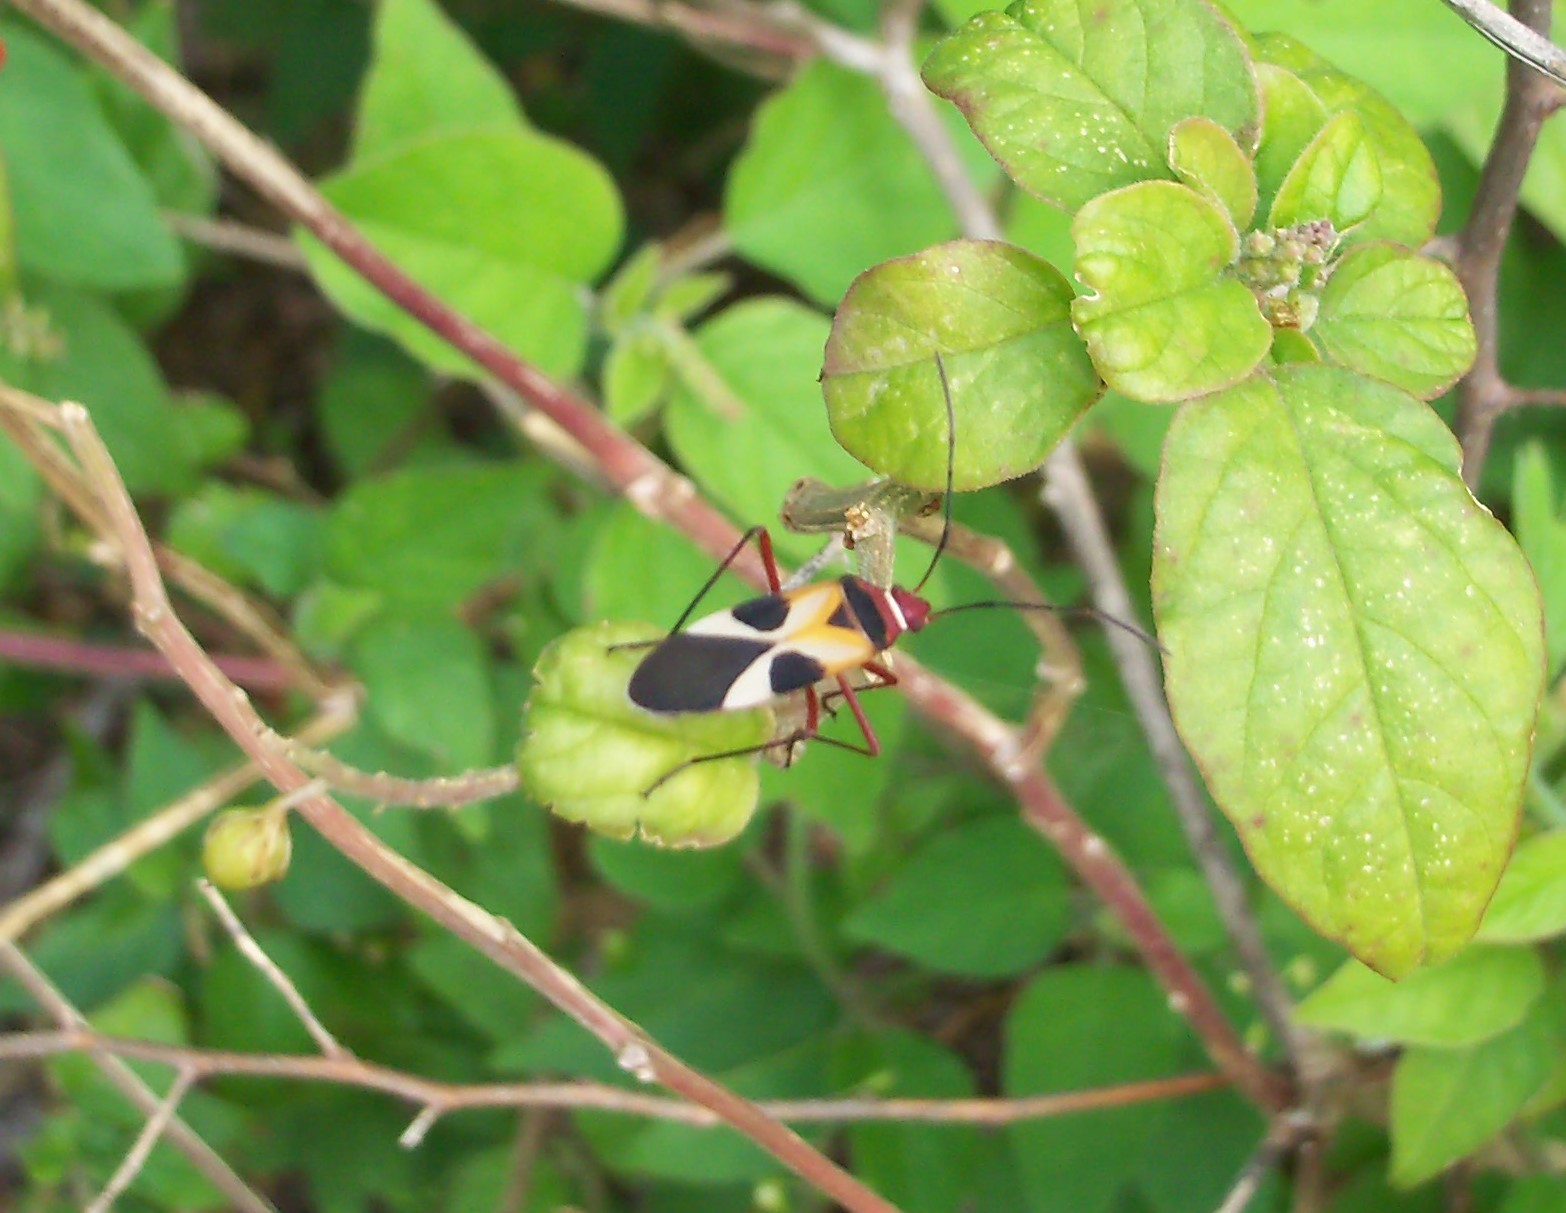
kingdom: Animalia
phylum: Arthropoda
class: Insecta
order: Hemiptera
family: Pyrrhocoridae
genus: Dysdercus
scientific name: Dysdercus concinnus
